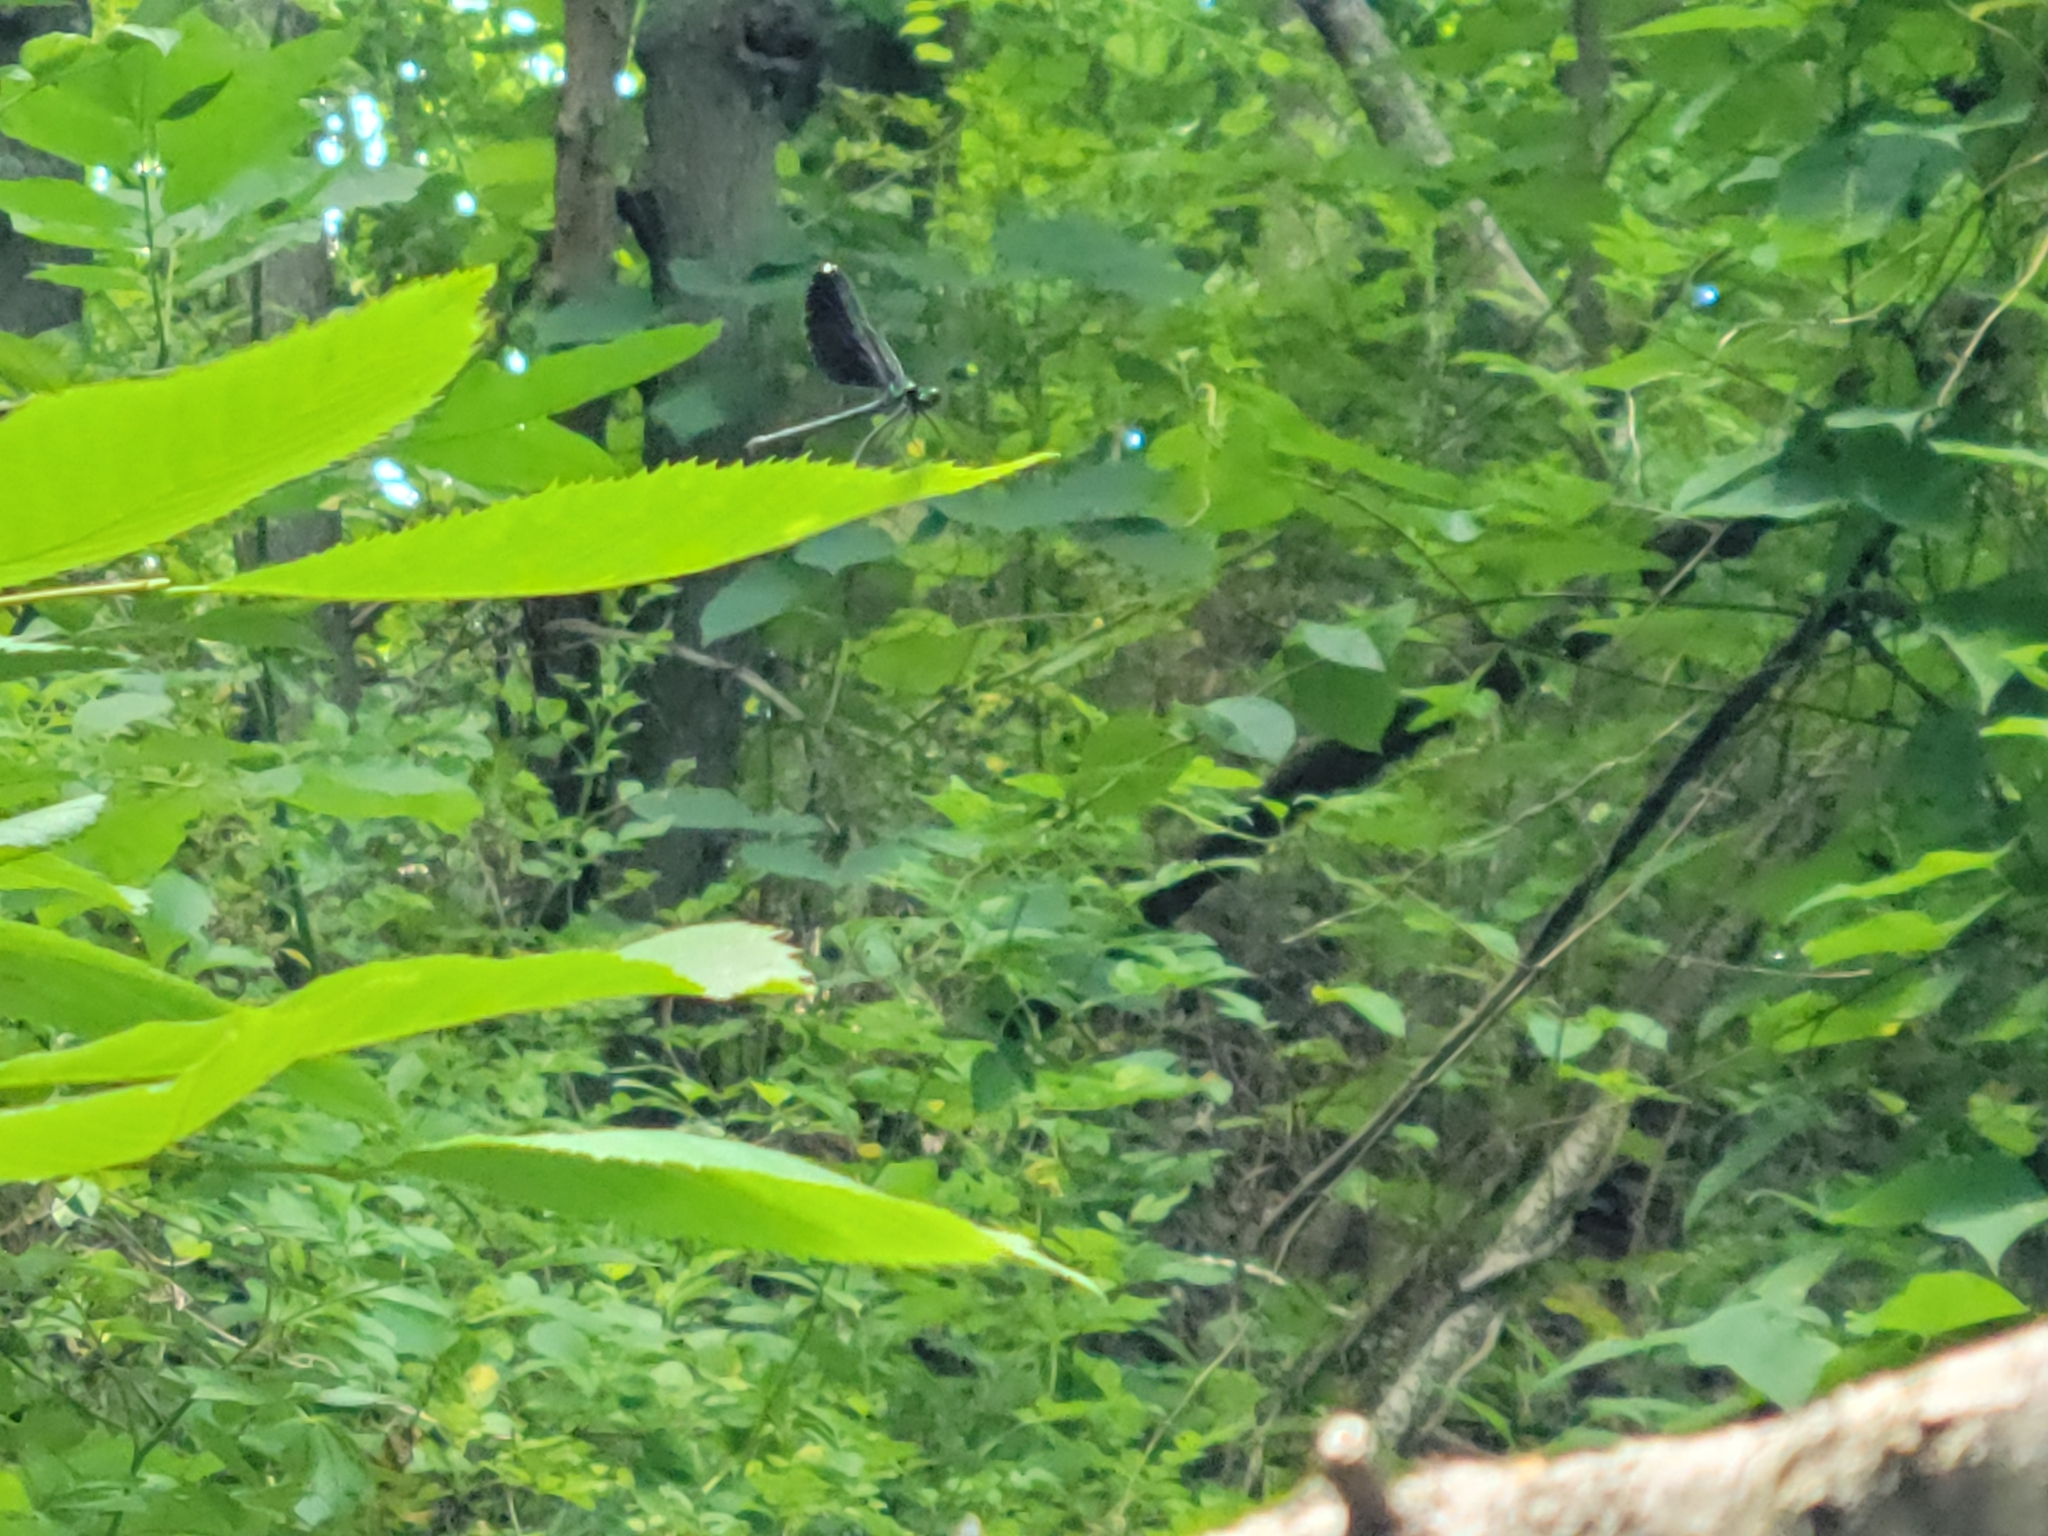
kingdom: Animalia
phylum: Arthropoda
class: Insecta
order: Odonata
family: Calopterygidae
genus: Calopteryx
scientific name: Calopteryx maculata
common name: Ebony jewelwing
